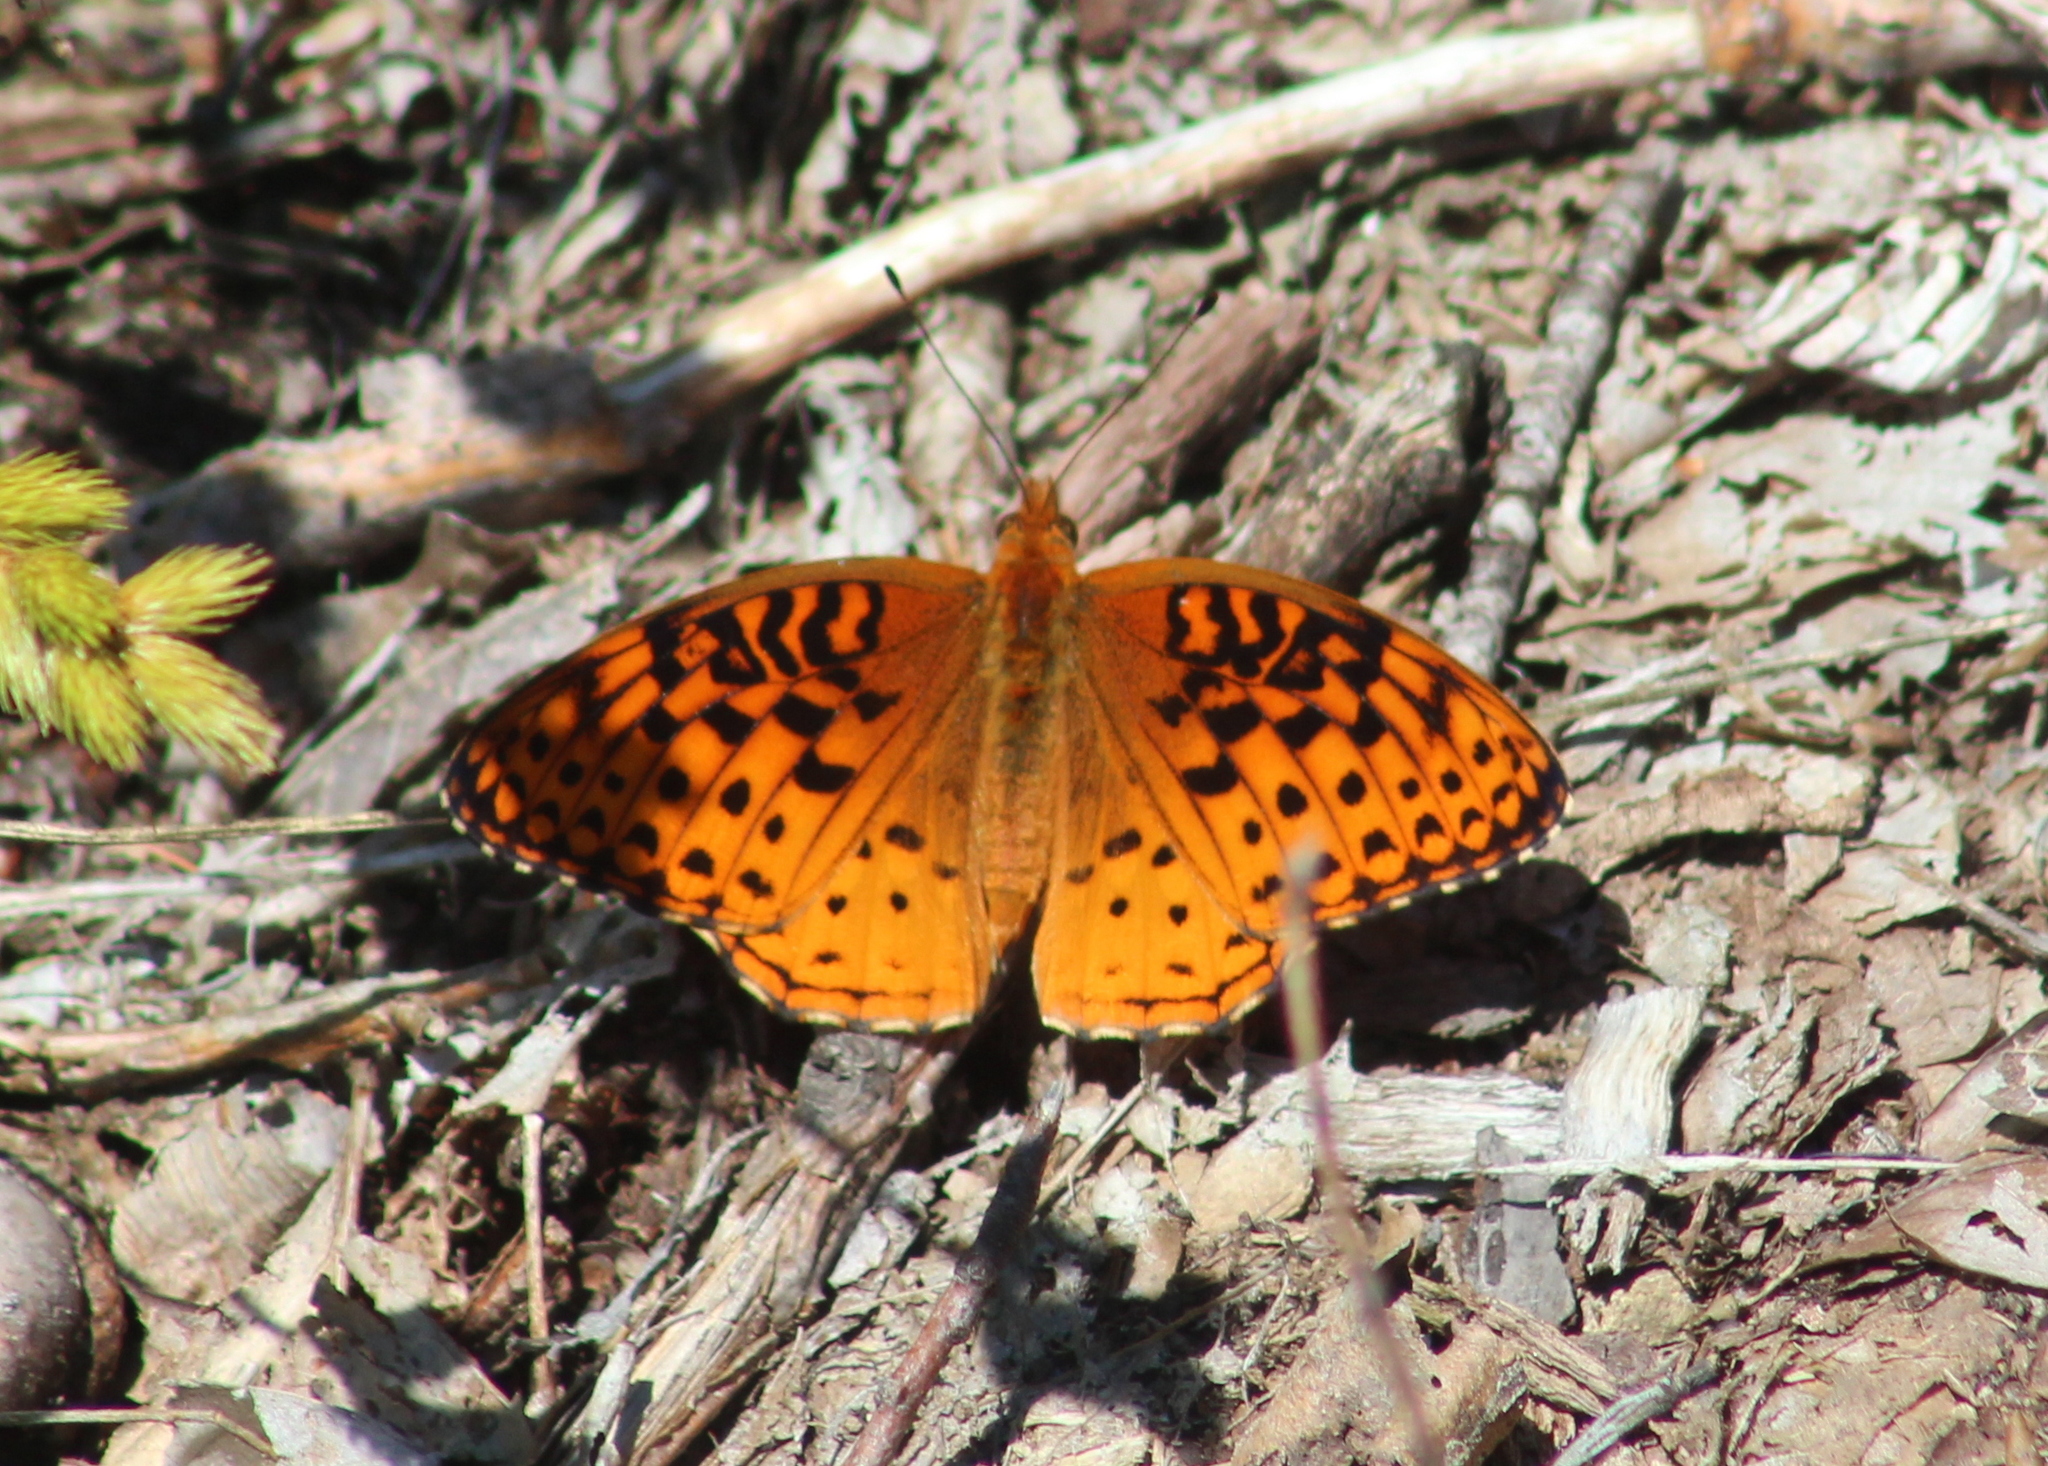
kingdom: Animalia
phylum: Arthropoda
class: Insecta
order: Lepidoptera
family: Nymphalidae
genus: Speyeria
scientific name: Speyeria aphrodite
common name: Aphrodite friitllary
